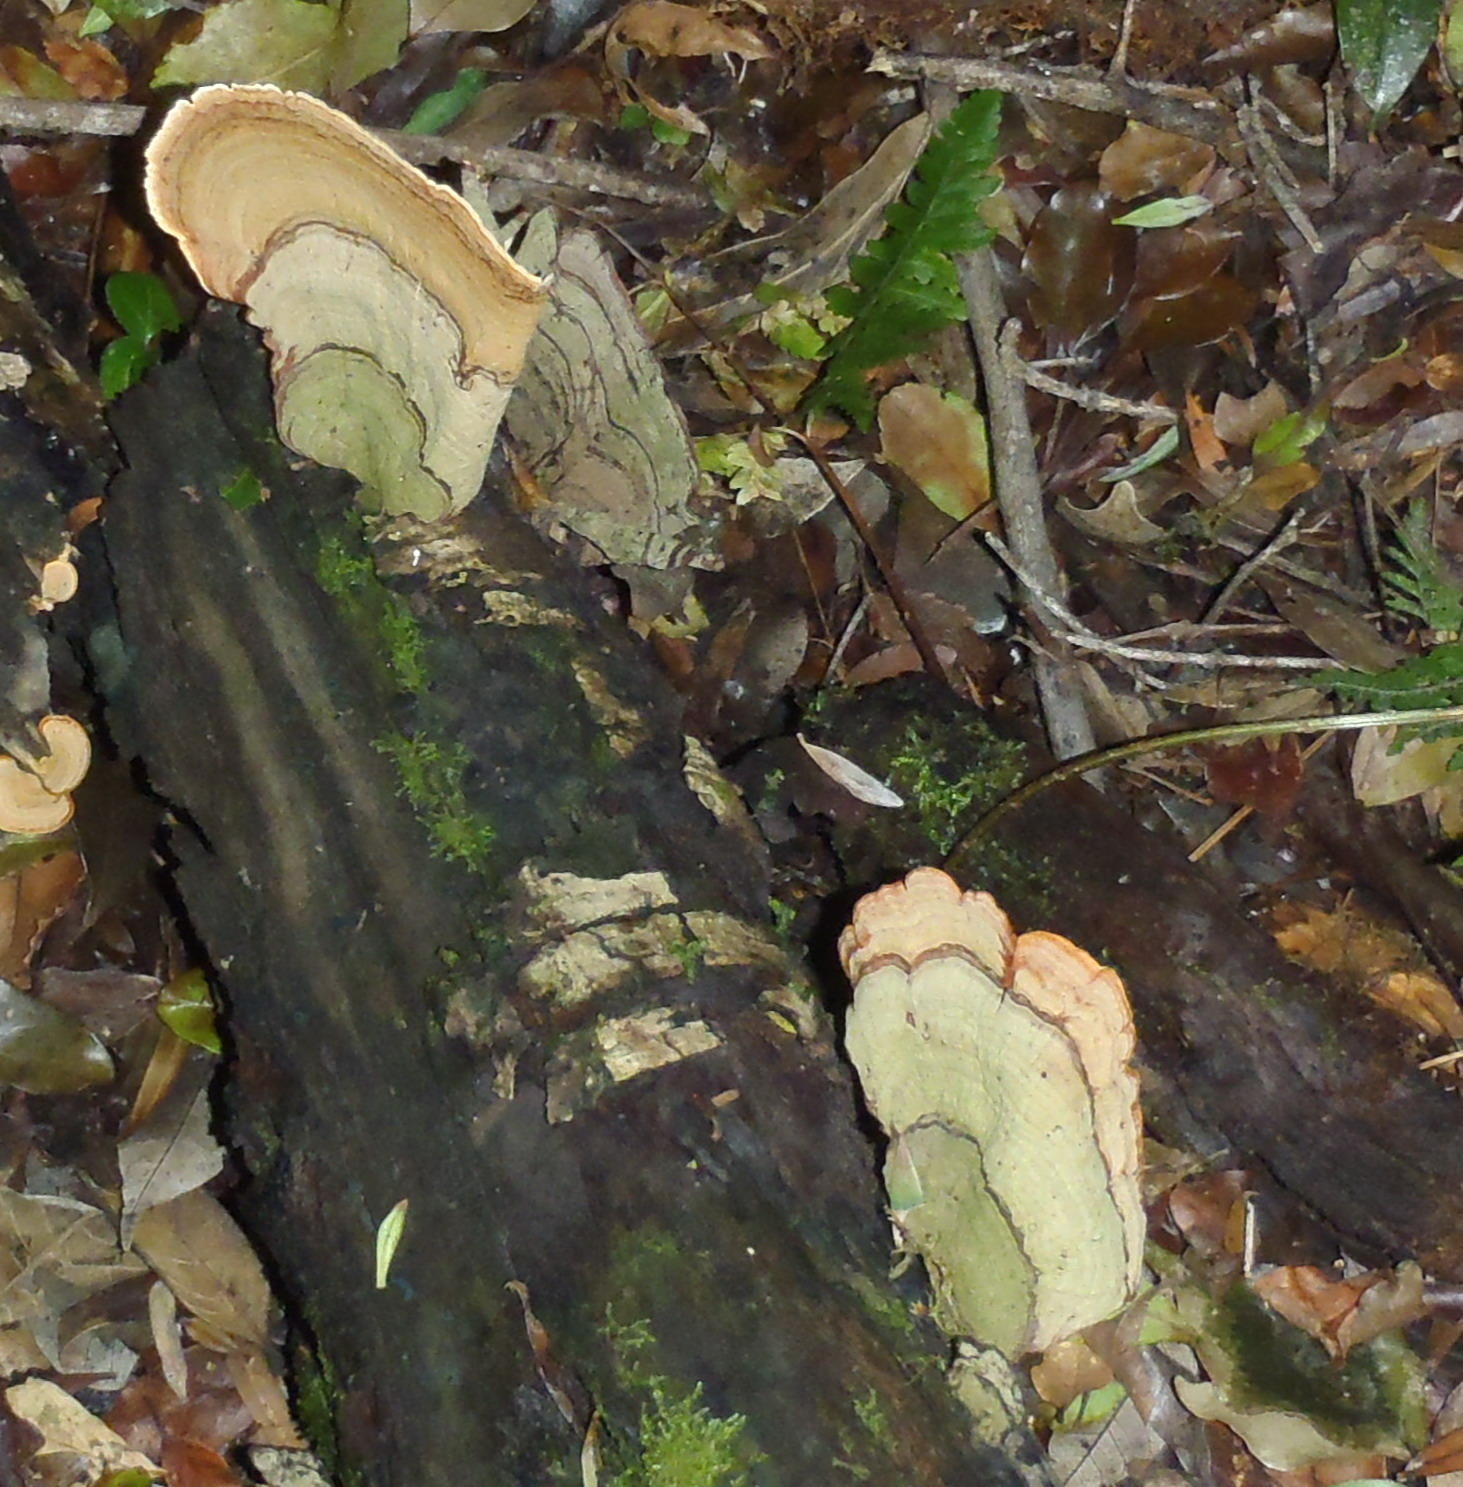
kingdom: Fungi
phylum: Basidiomycota
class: Agaricomycetes
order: Russulales
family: Stereaceae
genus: Stereum
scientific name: Stereum ostrea
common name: False turkeytail
